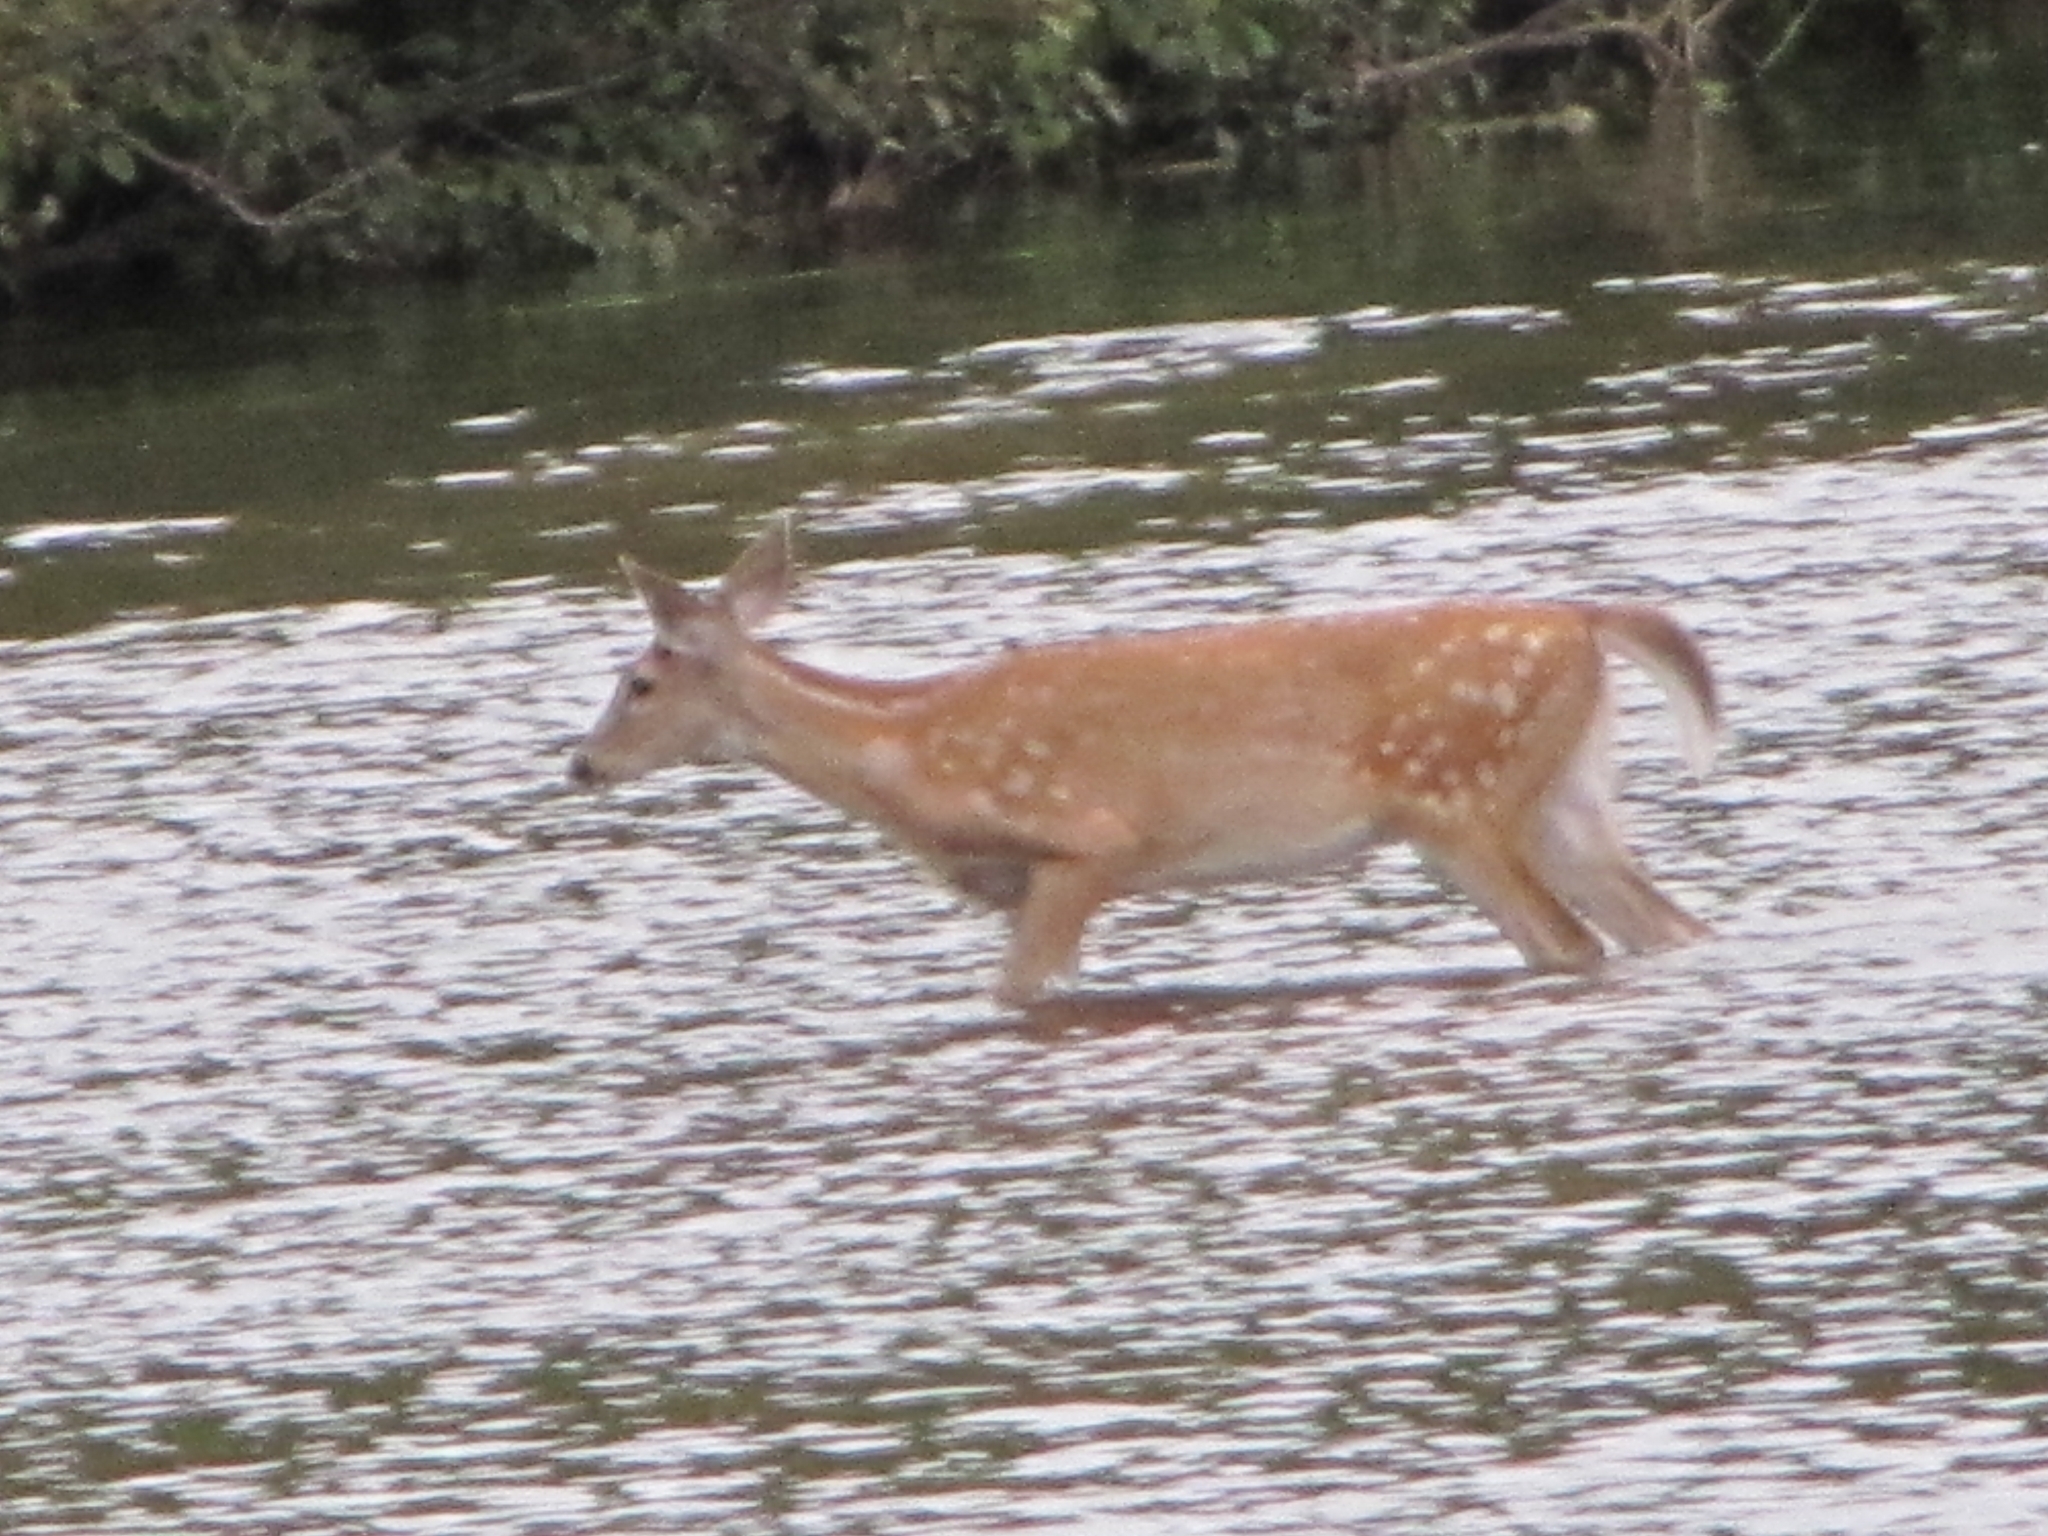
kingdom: Animalia
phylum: Chordata
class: Mammalia
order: Artiodactyla
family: Cervidae
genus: Odocoileus
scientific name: Odocoileus virginianus
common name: White-tailed deer
